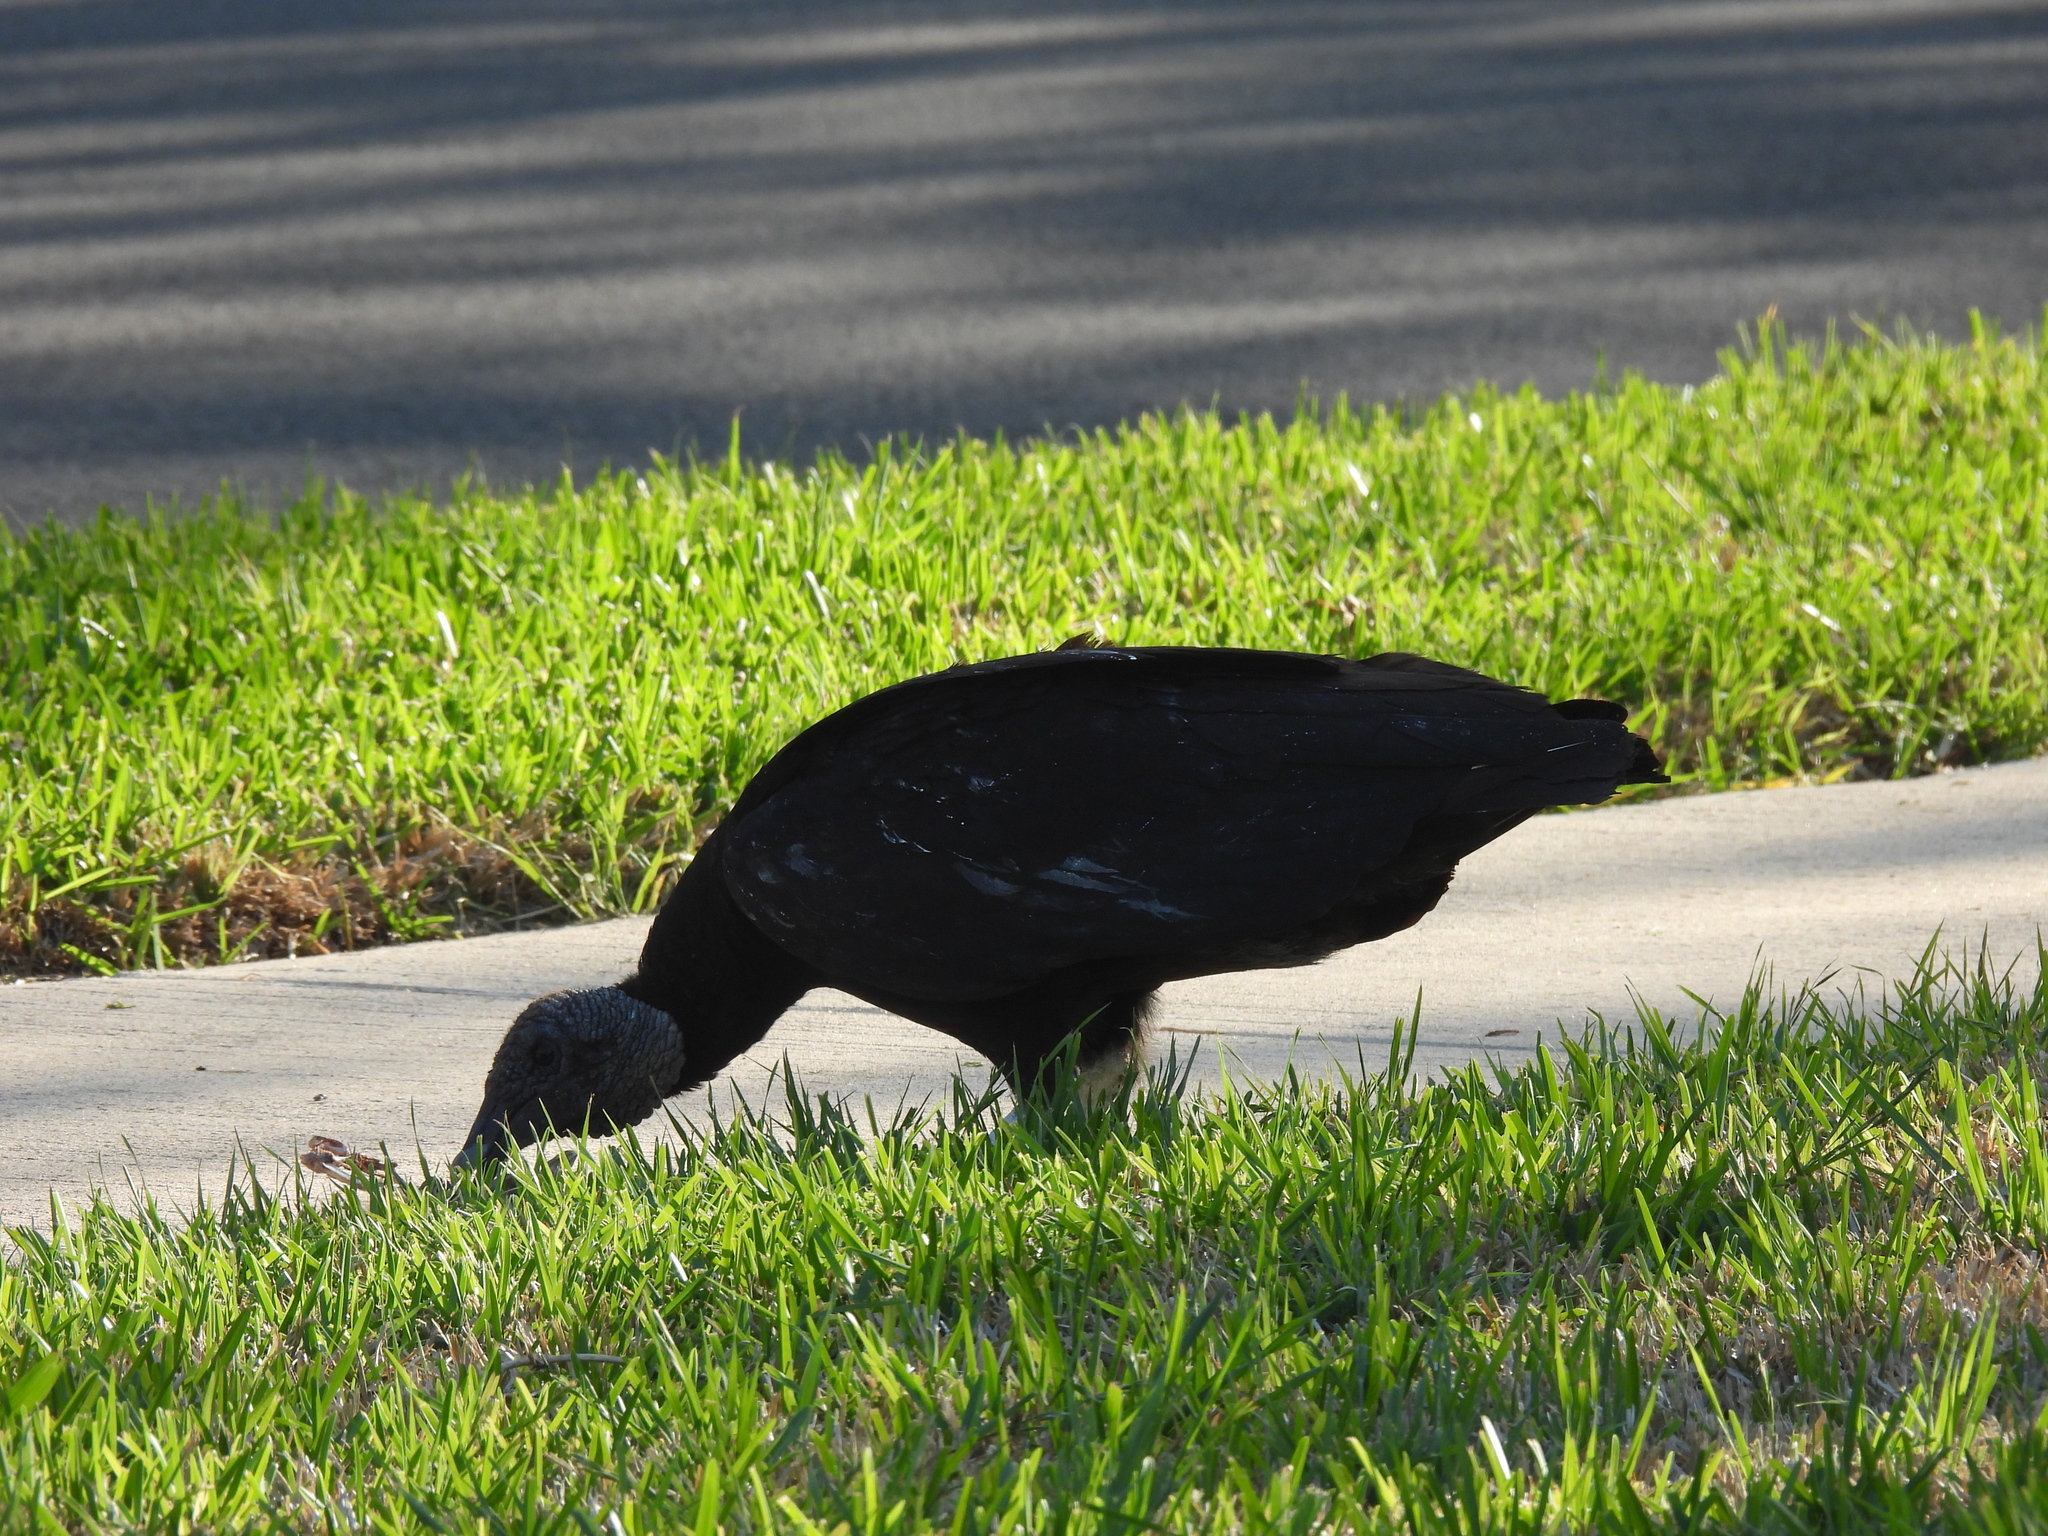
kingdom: Animalia
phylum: Chordata
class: Aves
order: Accipitriformes
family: Cathartidae
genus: Coragyps
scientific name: Coragyps atratus
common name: Black vulture
